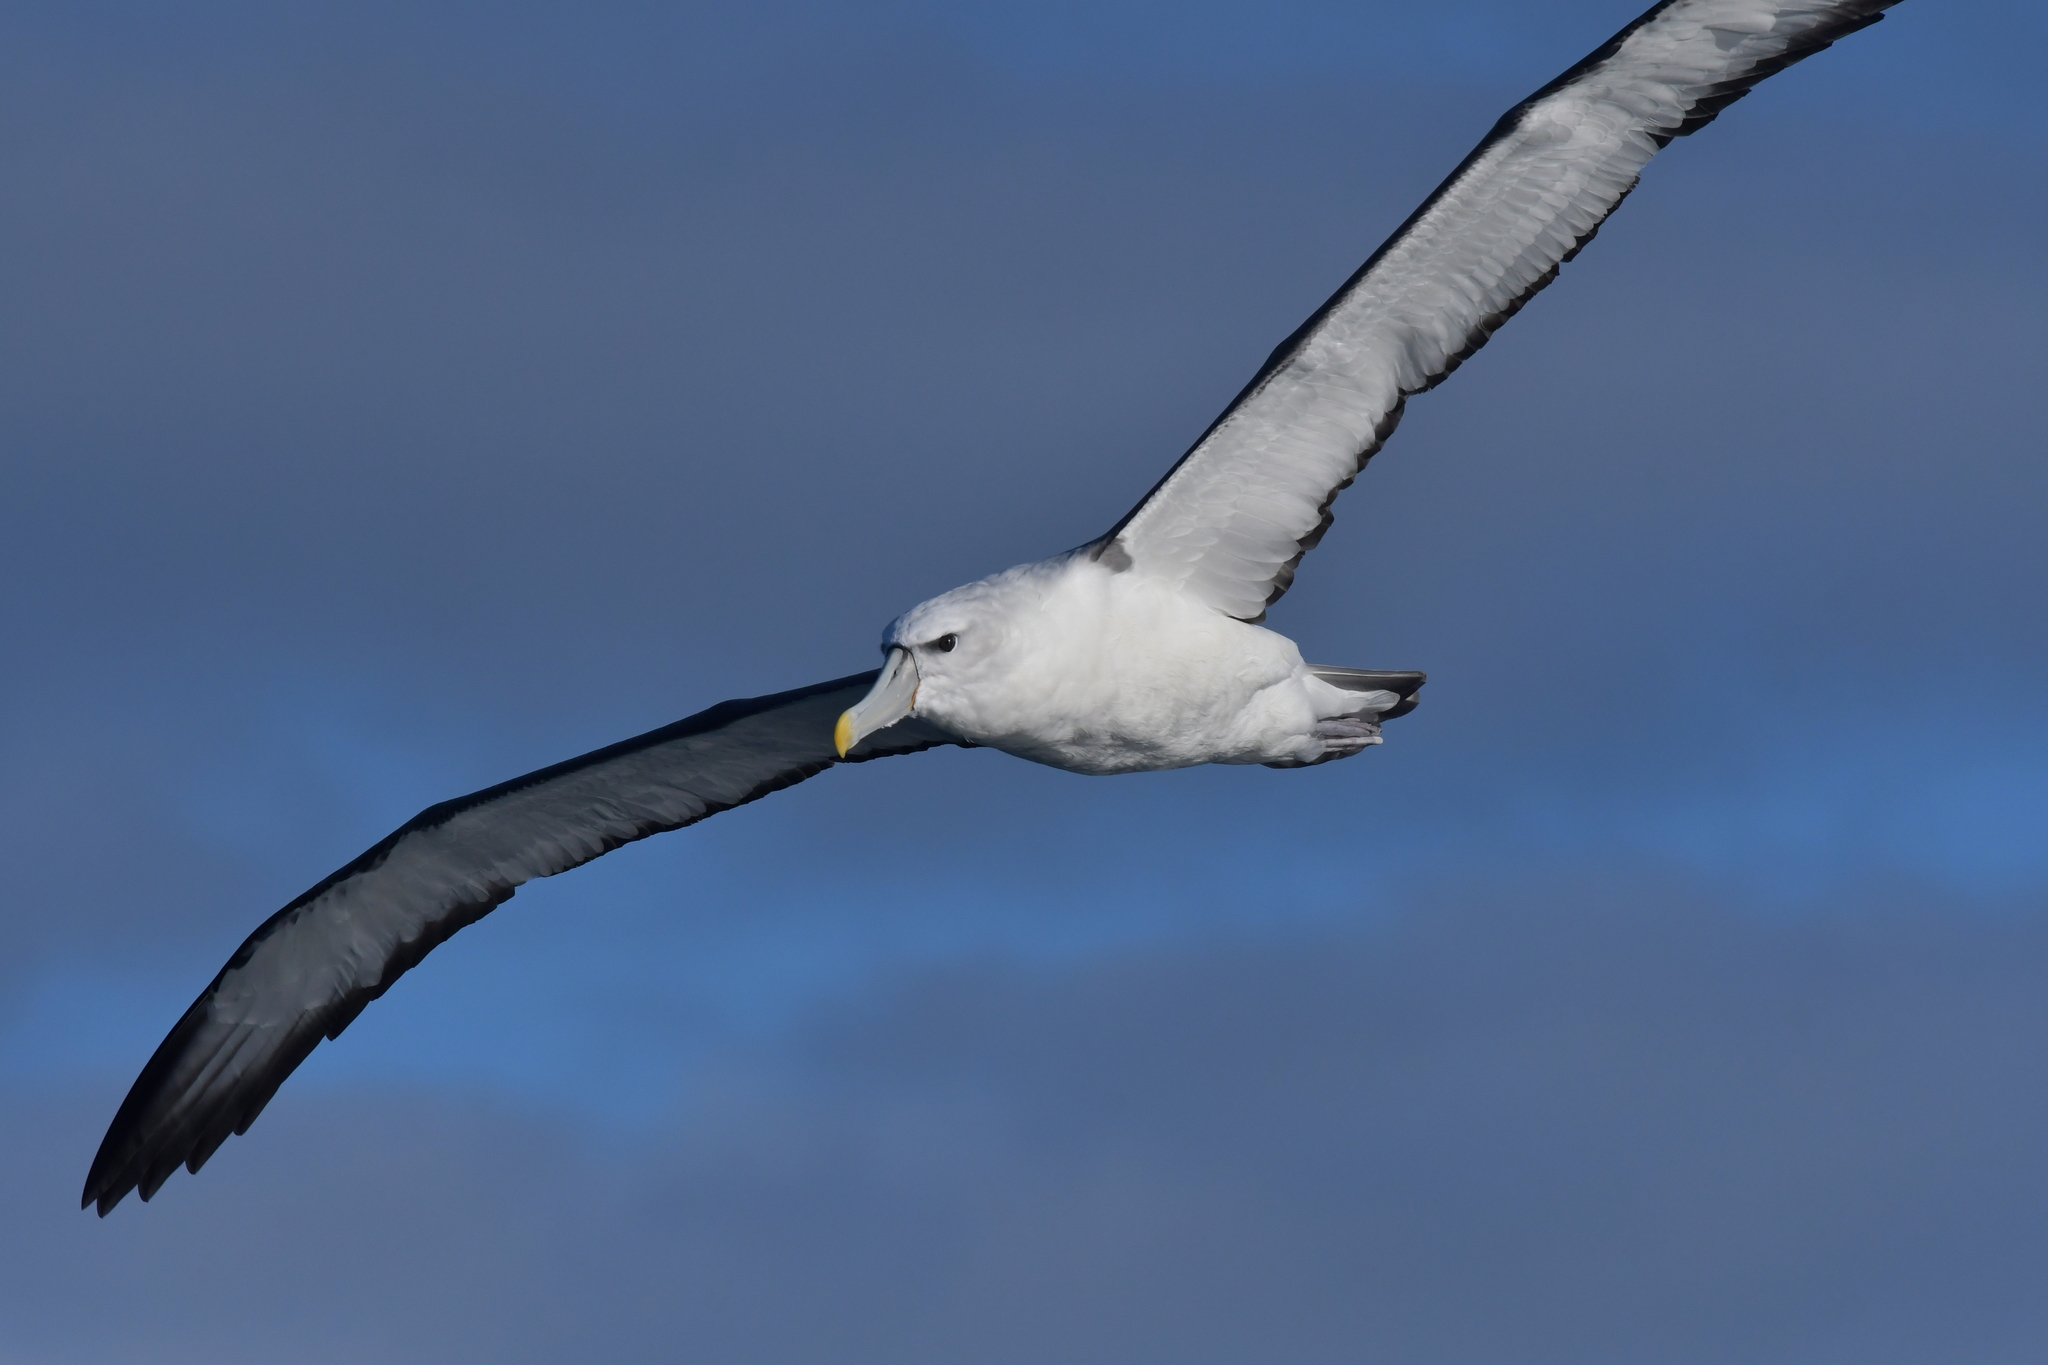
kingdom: Animalia
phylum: Chordata
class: Aves
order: Procellariiformes
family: Diomedeidae
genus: Thalassarche
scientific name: Thalassarche cauta
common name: Shy albatross
